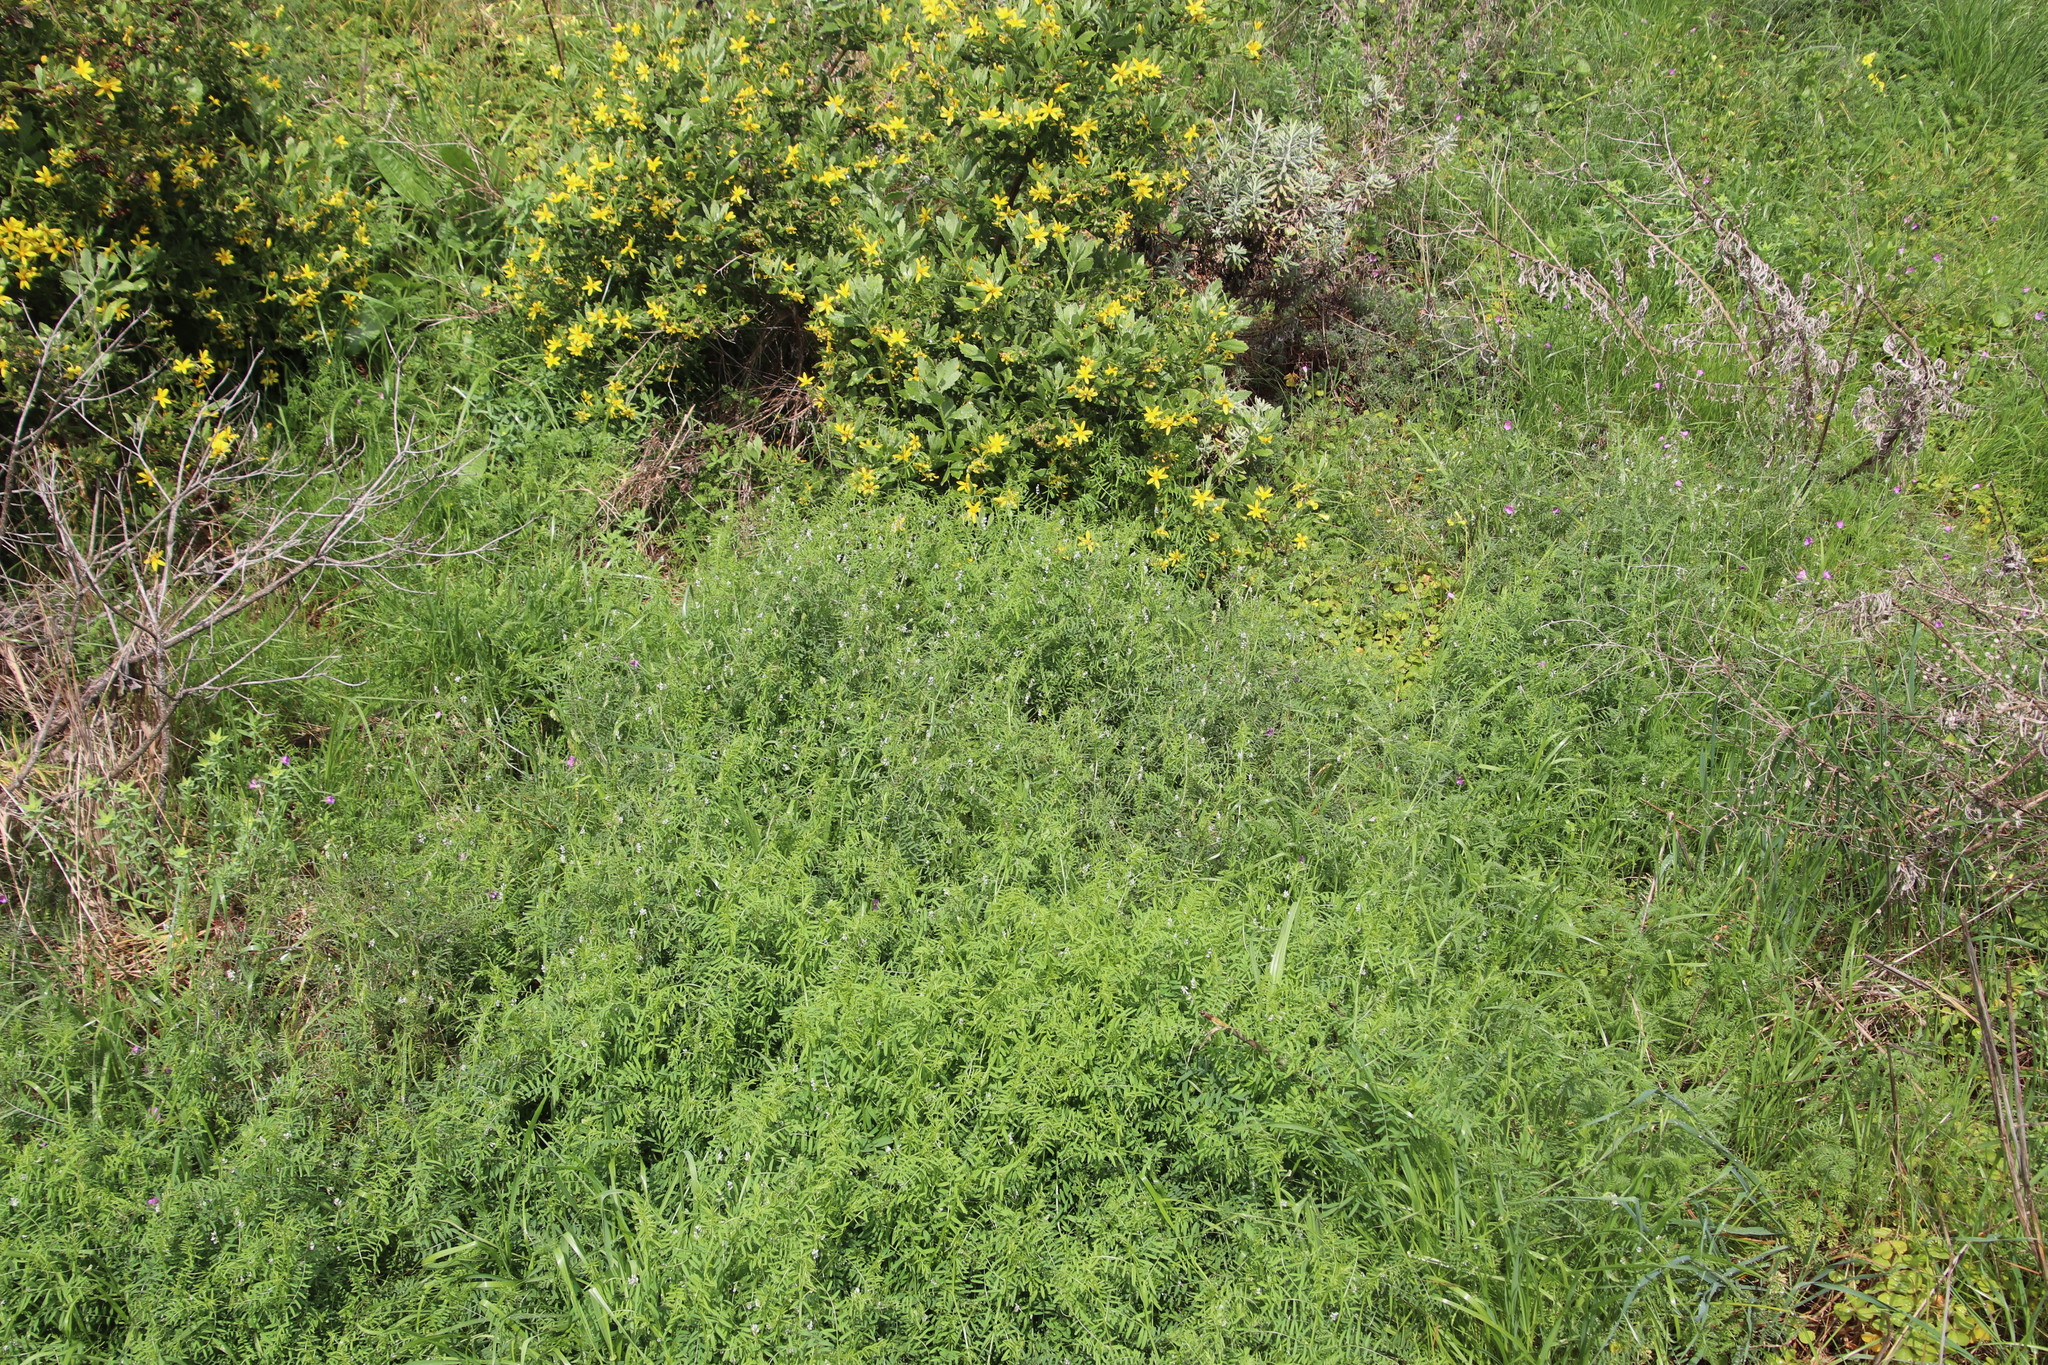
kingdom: Plantae
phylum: Tracheophyta
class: Magnoliopsida
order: Fabales
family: Fabaceae
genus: Vicia
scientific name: Vicia hirsuta
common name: Tiny vetch
